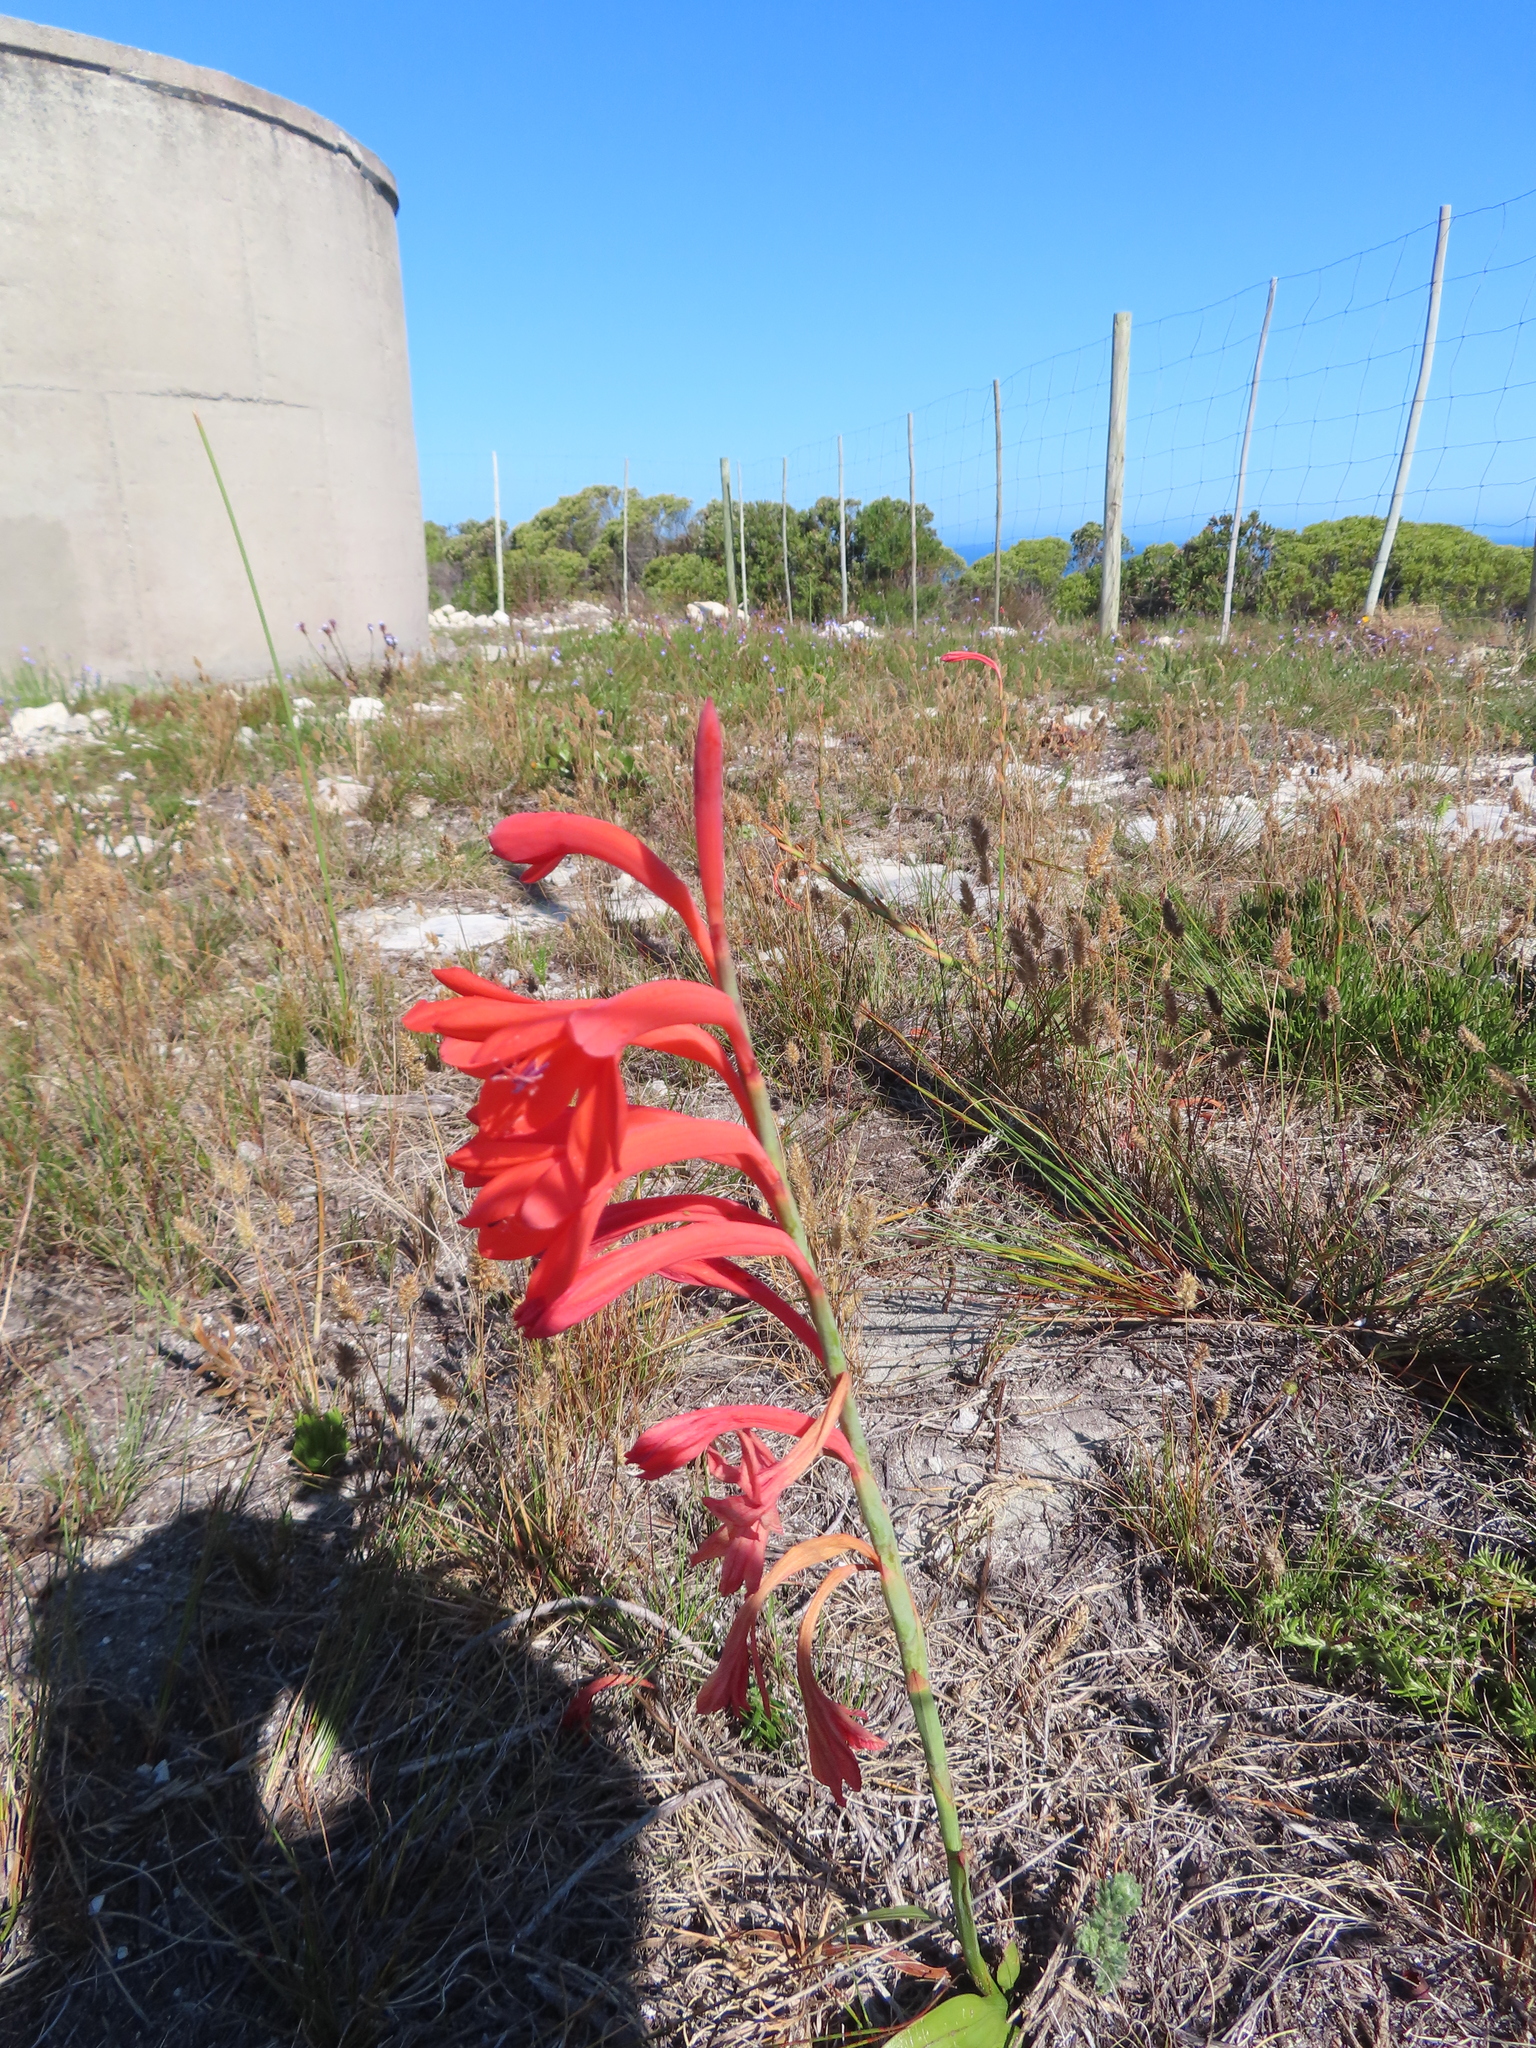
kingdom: Plantae
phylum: Tracheophyta
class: Liliopsida
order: Asparagales
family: Iridaceae
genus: Watsonia
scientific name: Watsonia fergusoniae
